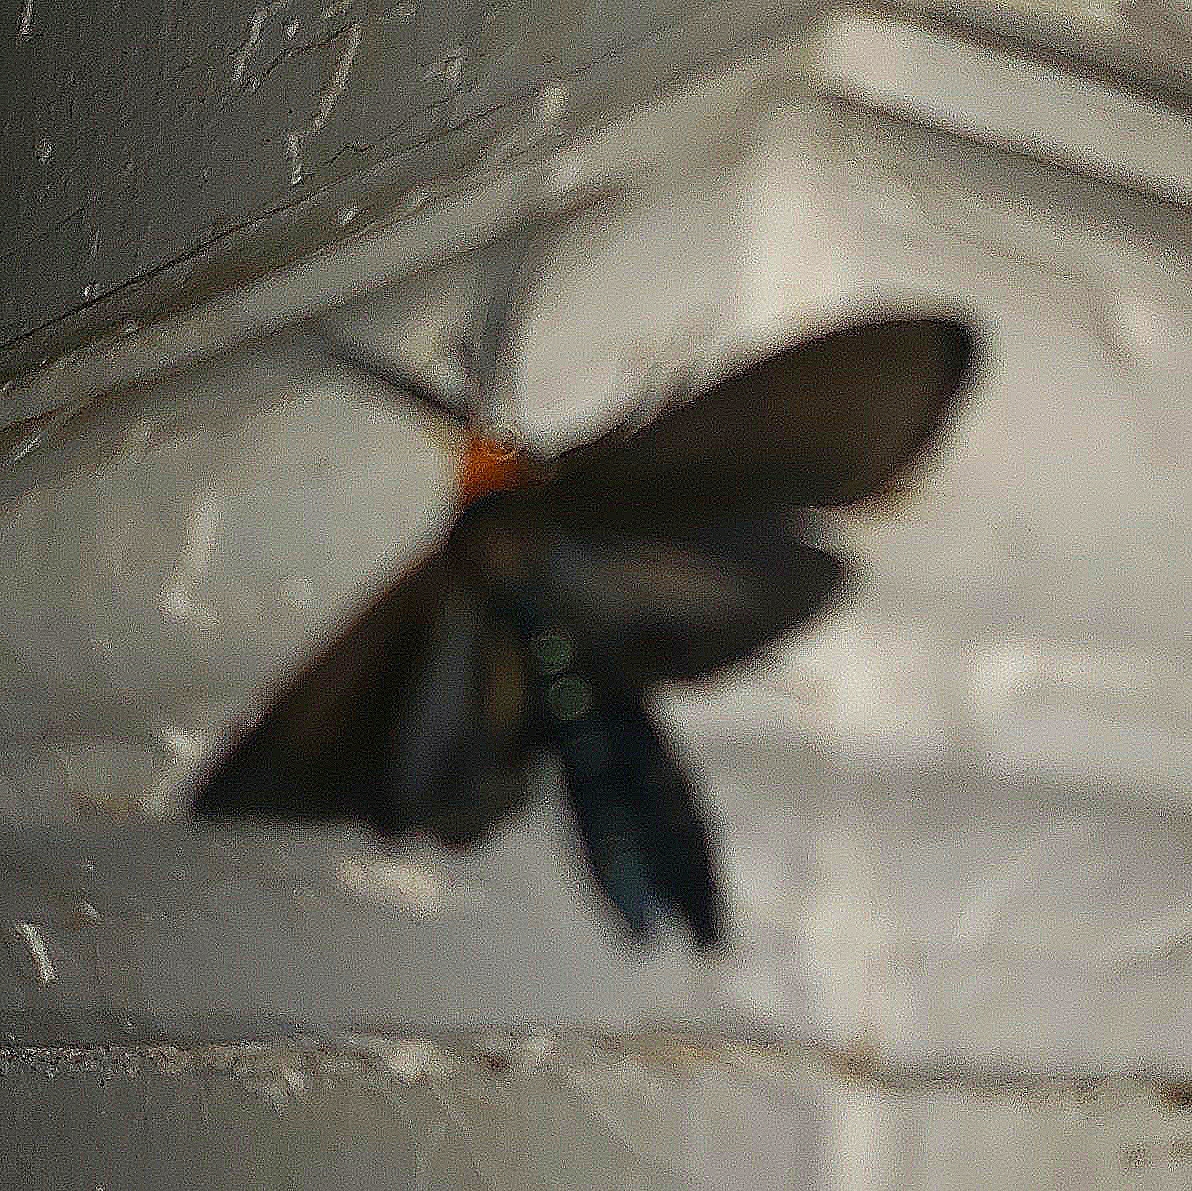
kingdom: Animalia
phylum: Arthropoda
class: Insecta
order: Lepidoptera
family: Erebidae
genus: Cisseps
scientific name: Cisseps fulvicollis
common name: Yellow-collared scape moth
